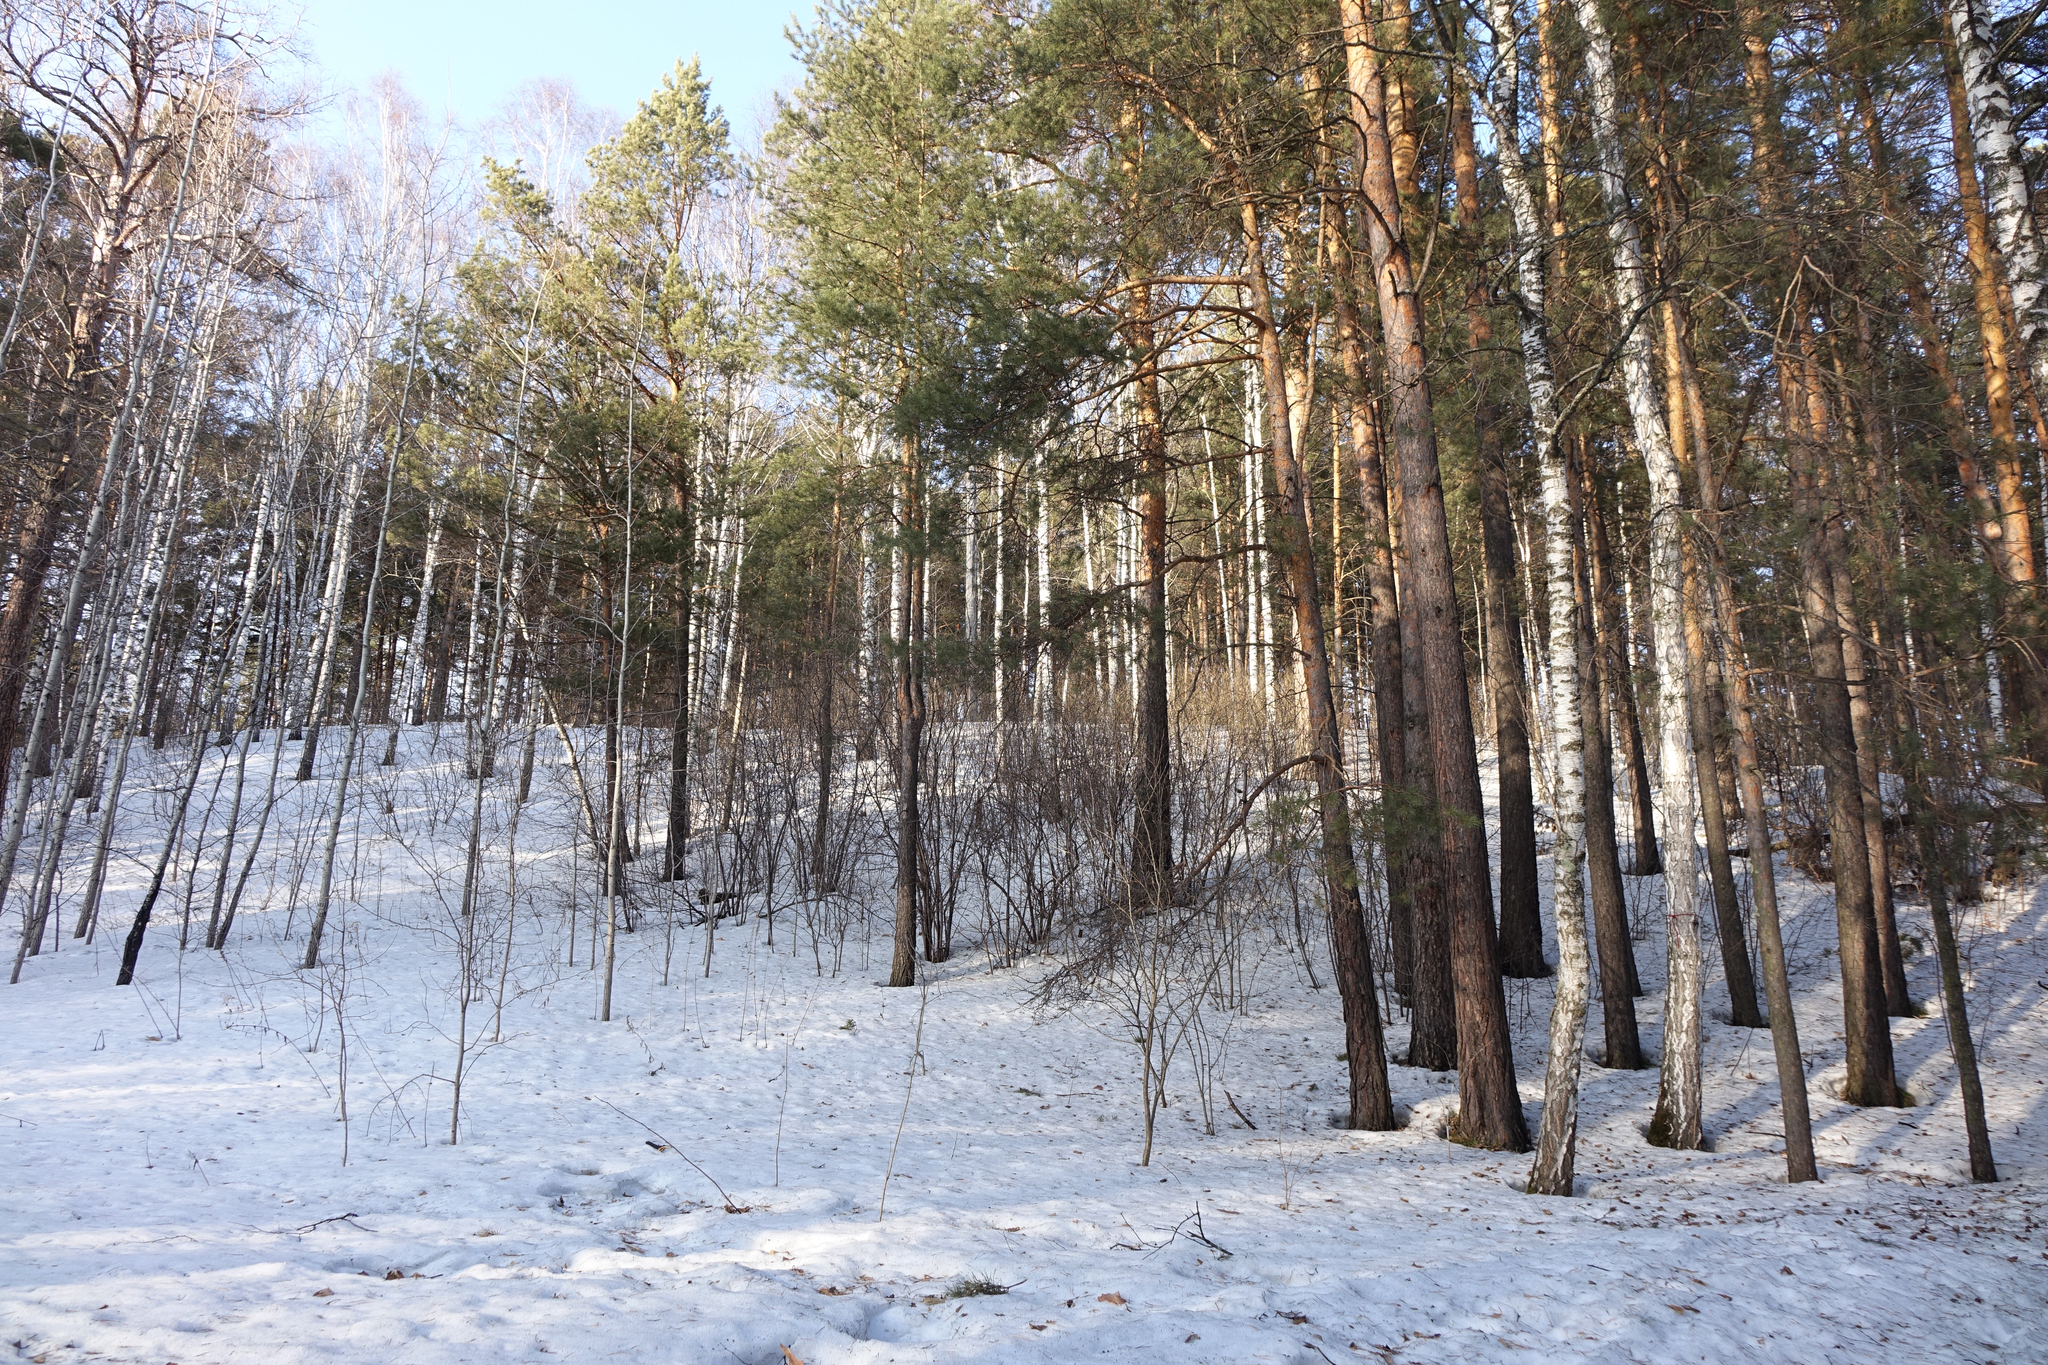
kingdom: Plantae
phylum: Tracheophyta
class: Pinopsida
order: Pinales
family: Pinaceae
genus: Pinus
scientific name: Pinus sylvestris
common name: Scots pine
